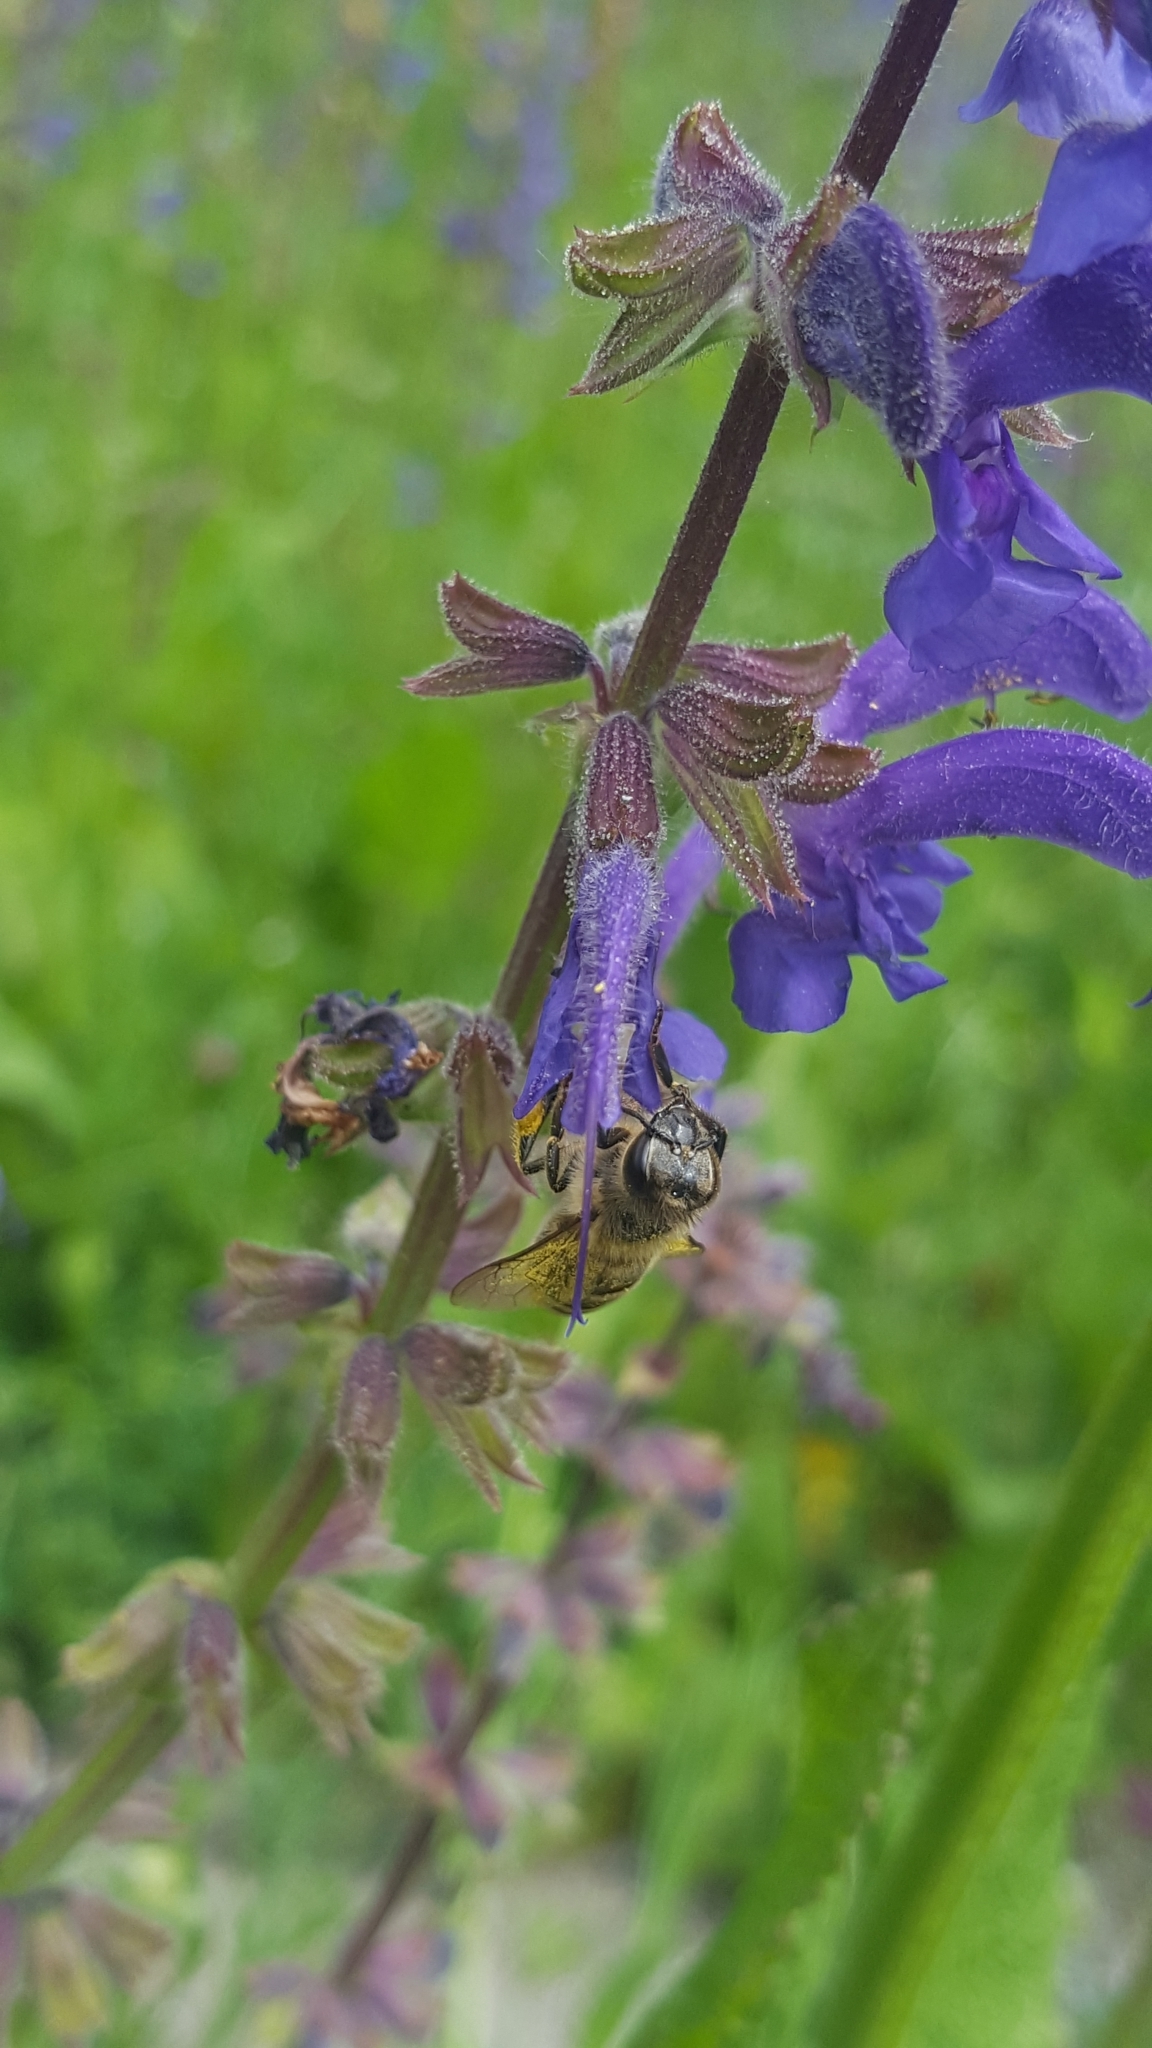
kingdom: Animalia
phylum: Arthropoda
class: Insecta
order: Hymenoptera
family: Apidae
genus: Apis
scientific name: Apis mellifera
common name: Honey bee
